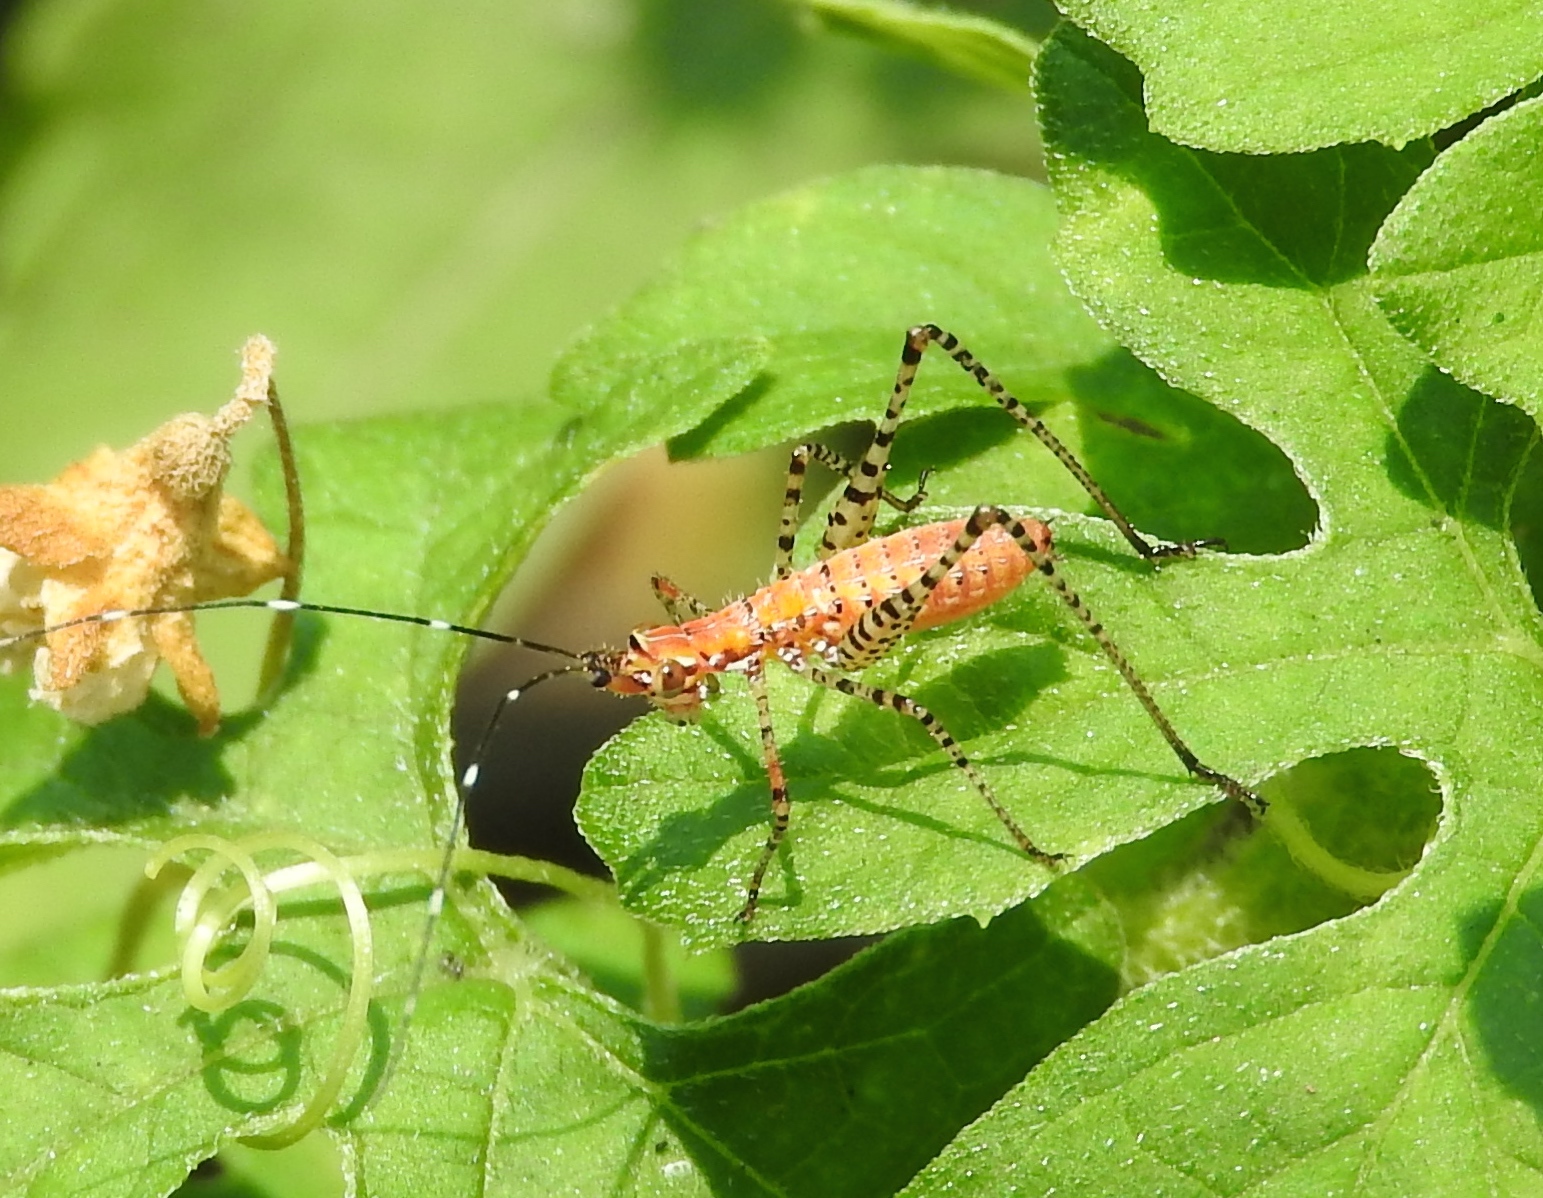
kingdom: Animalia
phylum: Arthropoda
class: Insecta
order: Orthoptera
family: Tettigoniidae
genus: Scudderia
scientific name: Scudderia
